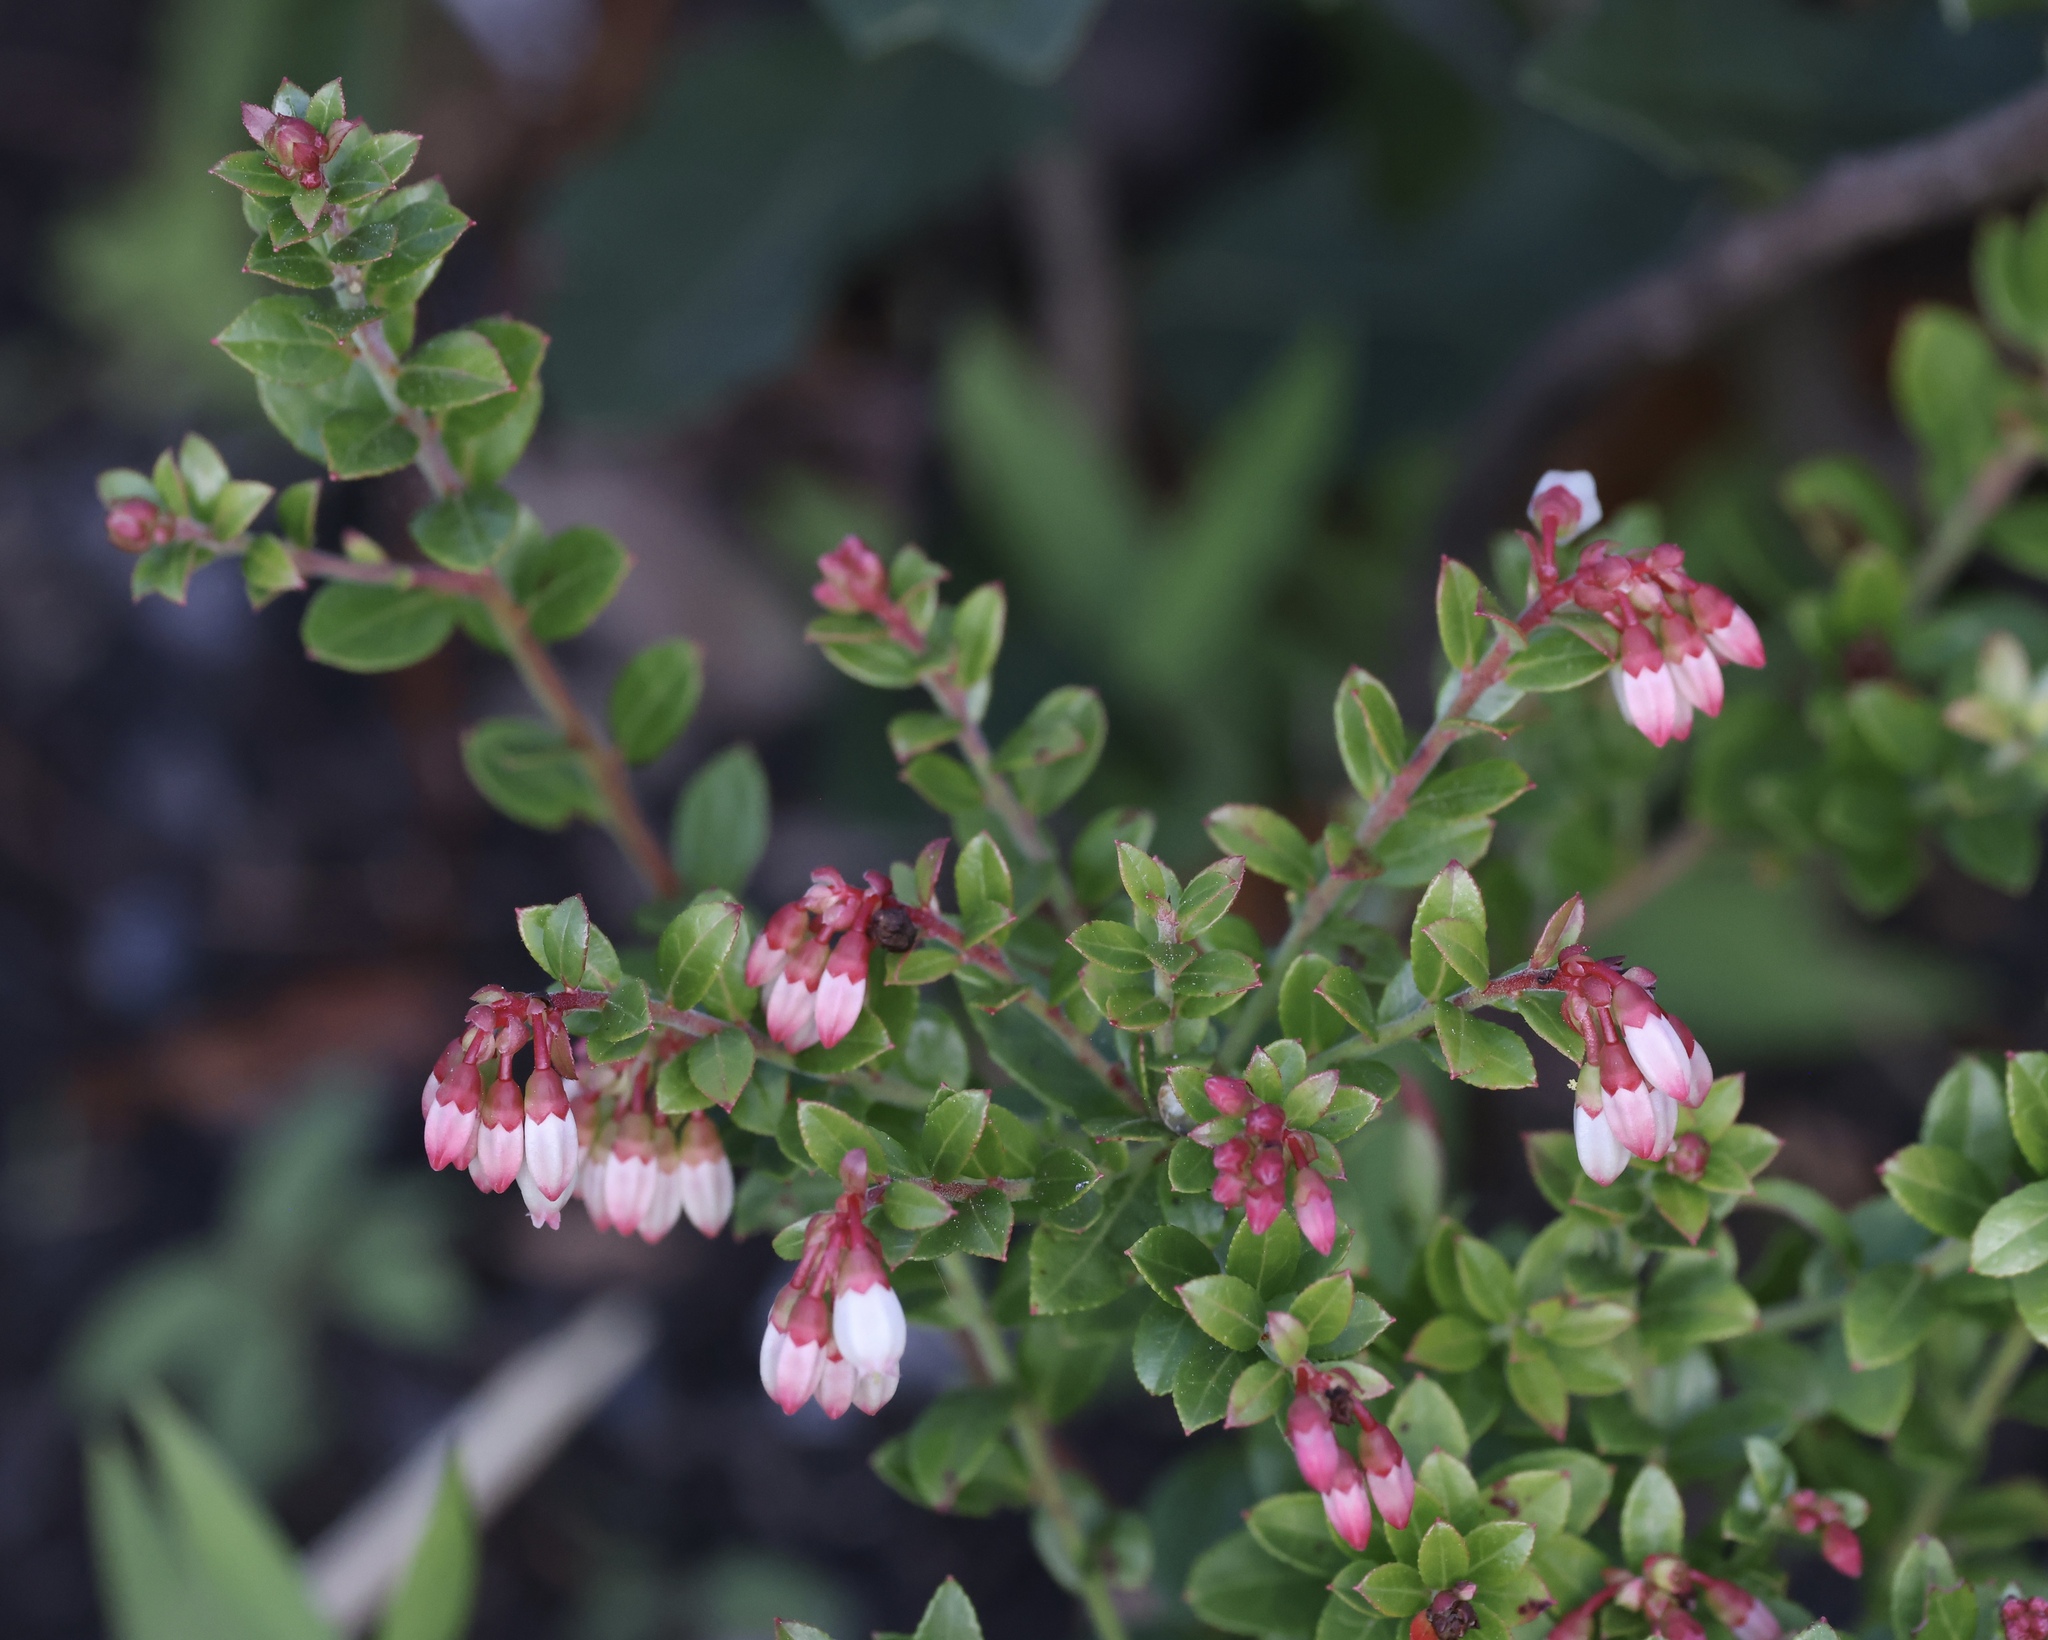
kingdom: Plantae
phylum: Tracheophyta
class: Magnoliopsida
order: Ericales
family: Ericaceae
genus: Vaccinium
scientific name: Vaccinium myrsinites
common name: Evergreen blueberry
